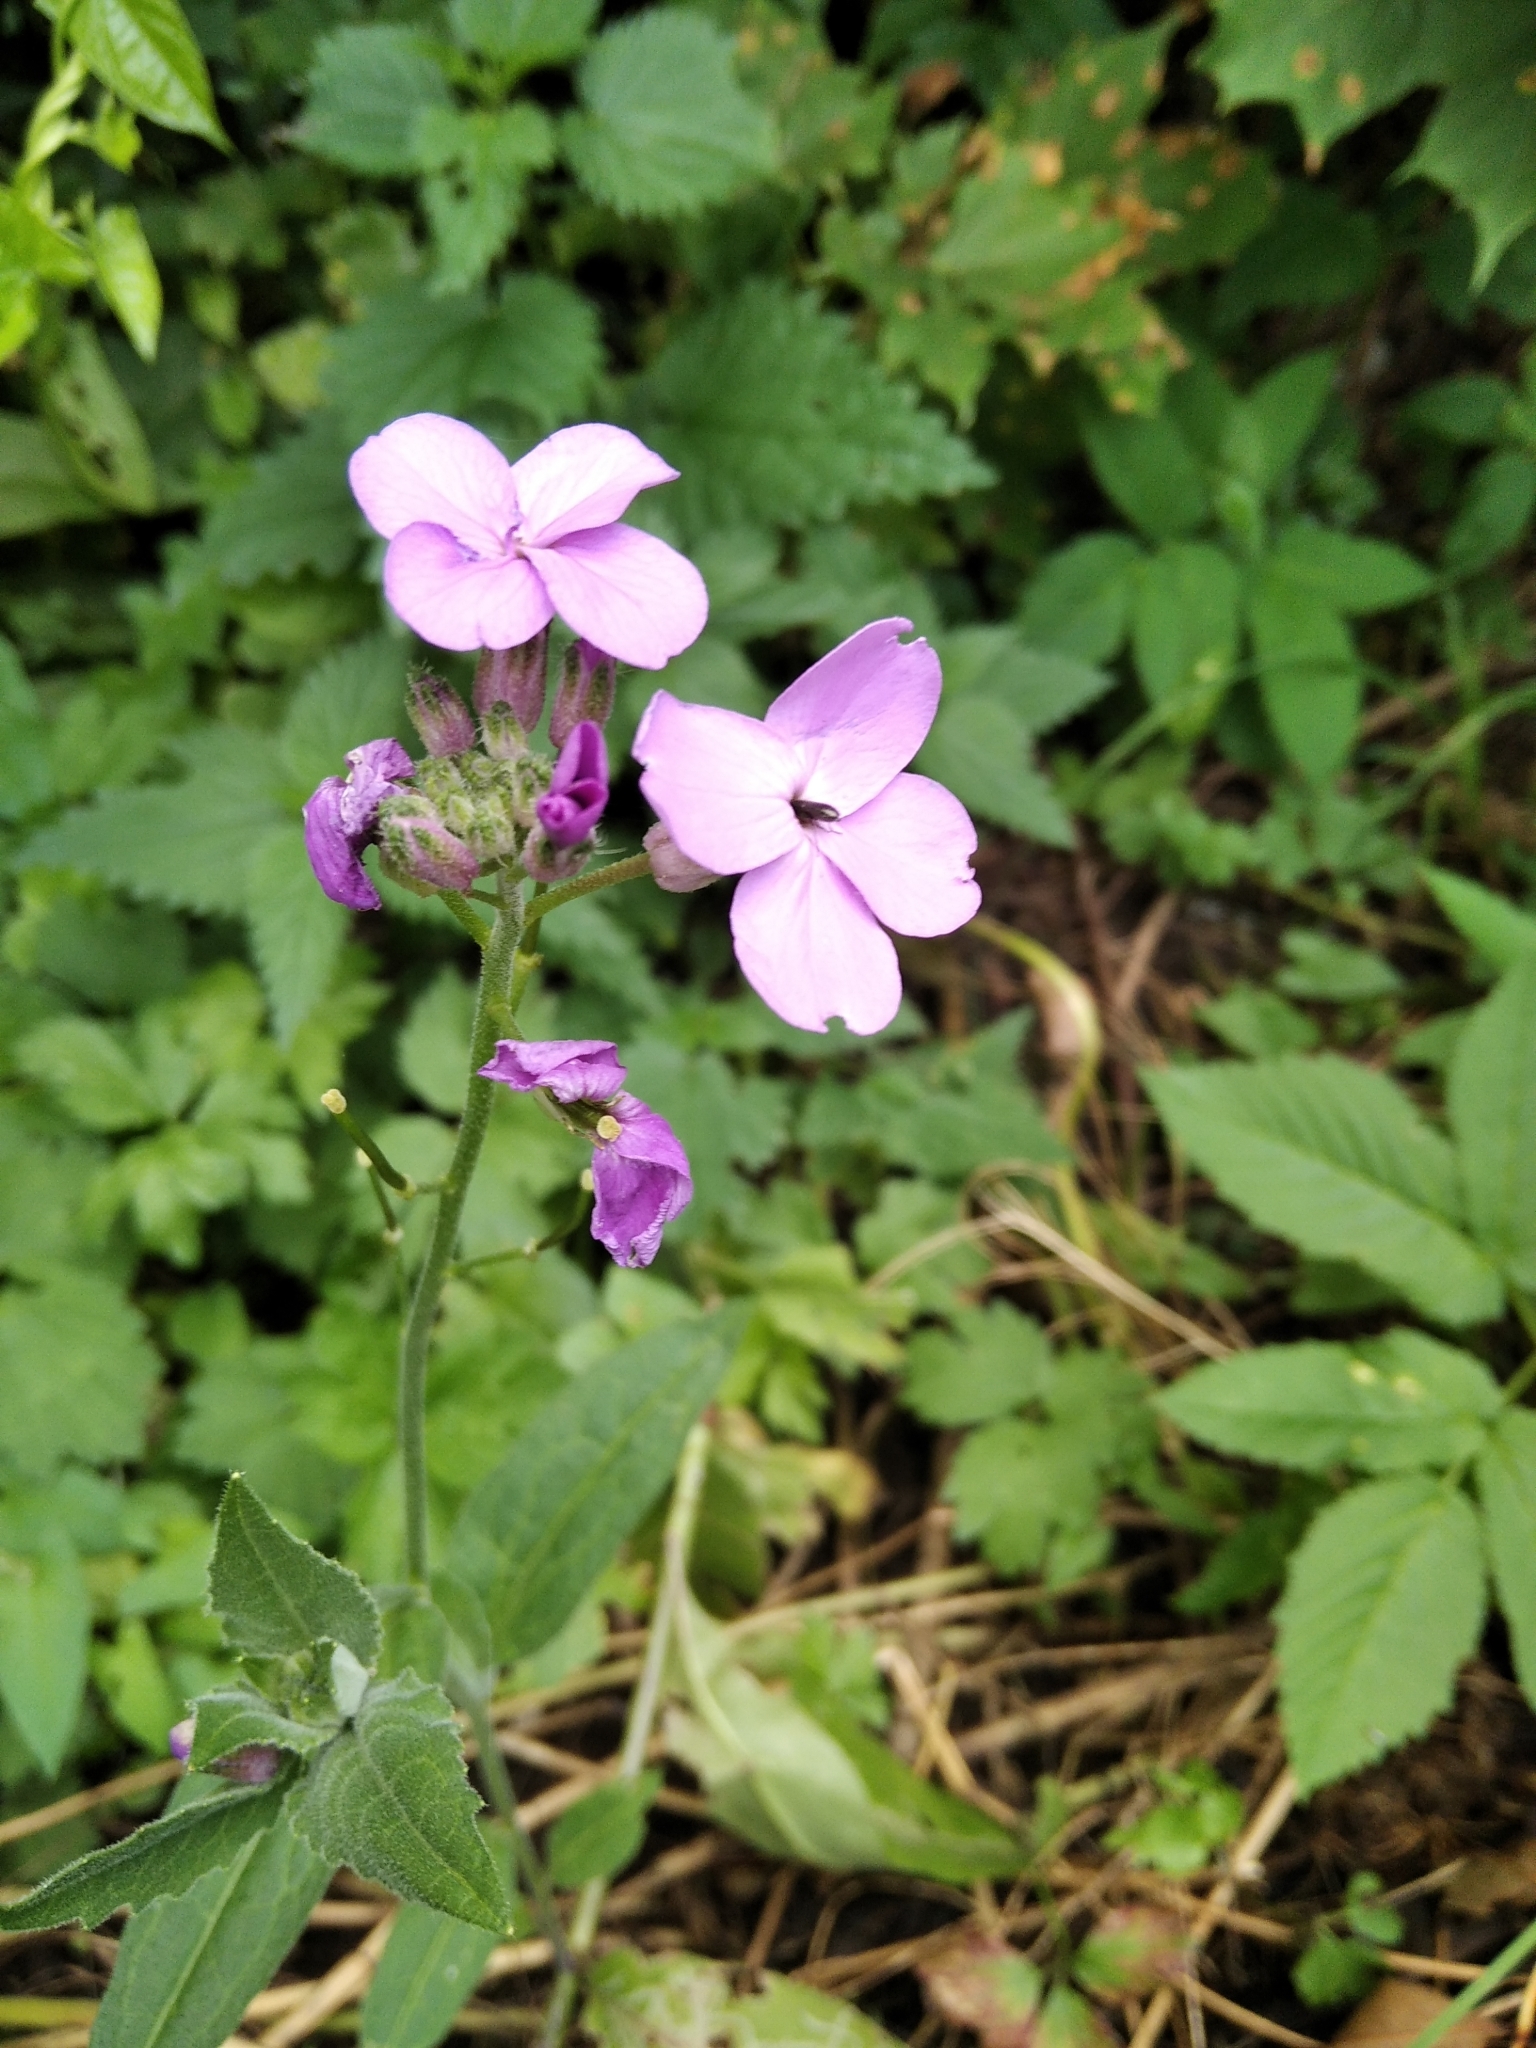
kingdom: Plantae
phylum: Tracheophyta
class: Magnoliopsida
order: Brassicales
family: Brassicaceae
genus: Hesperis
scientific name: Hesperis matronalis
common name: Dame's-violet
